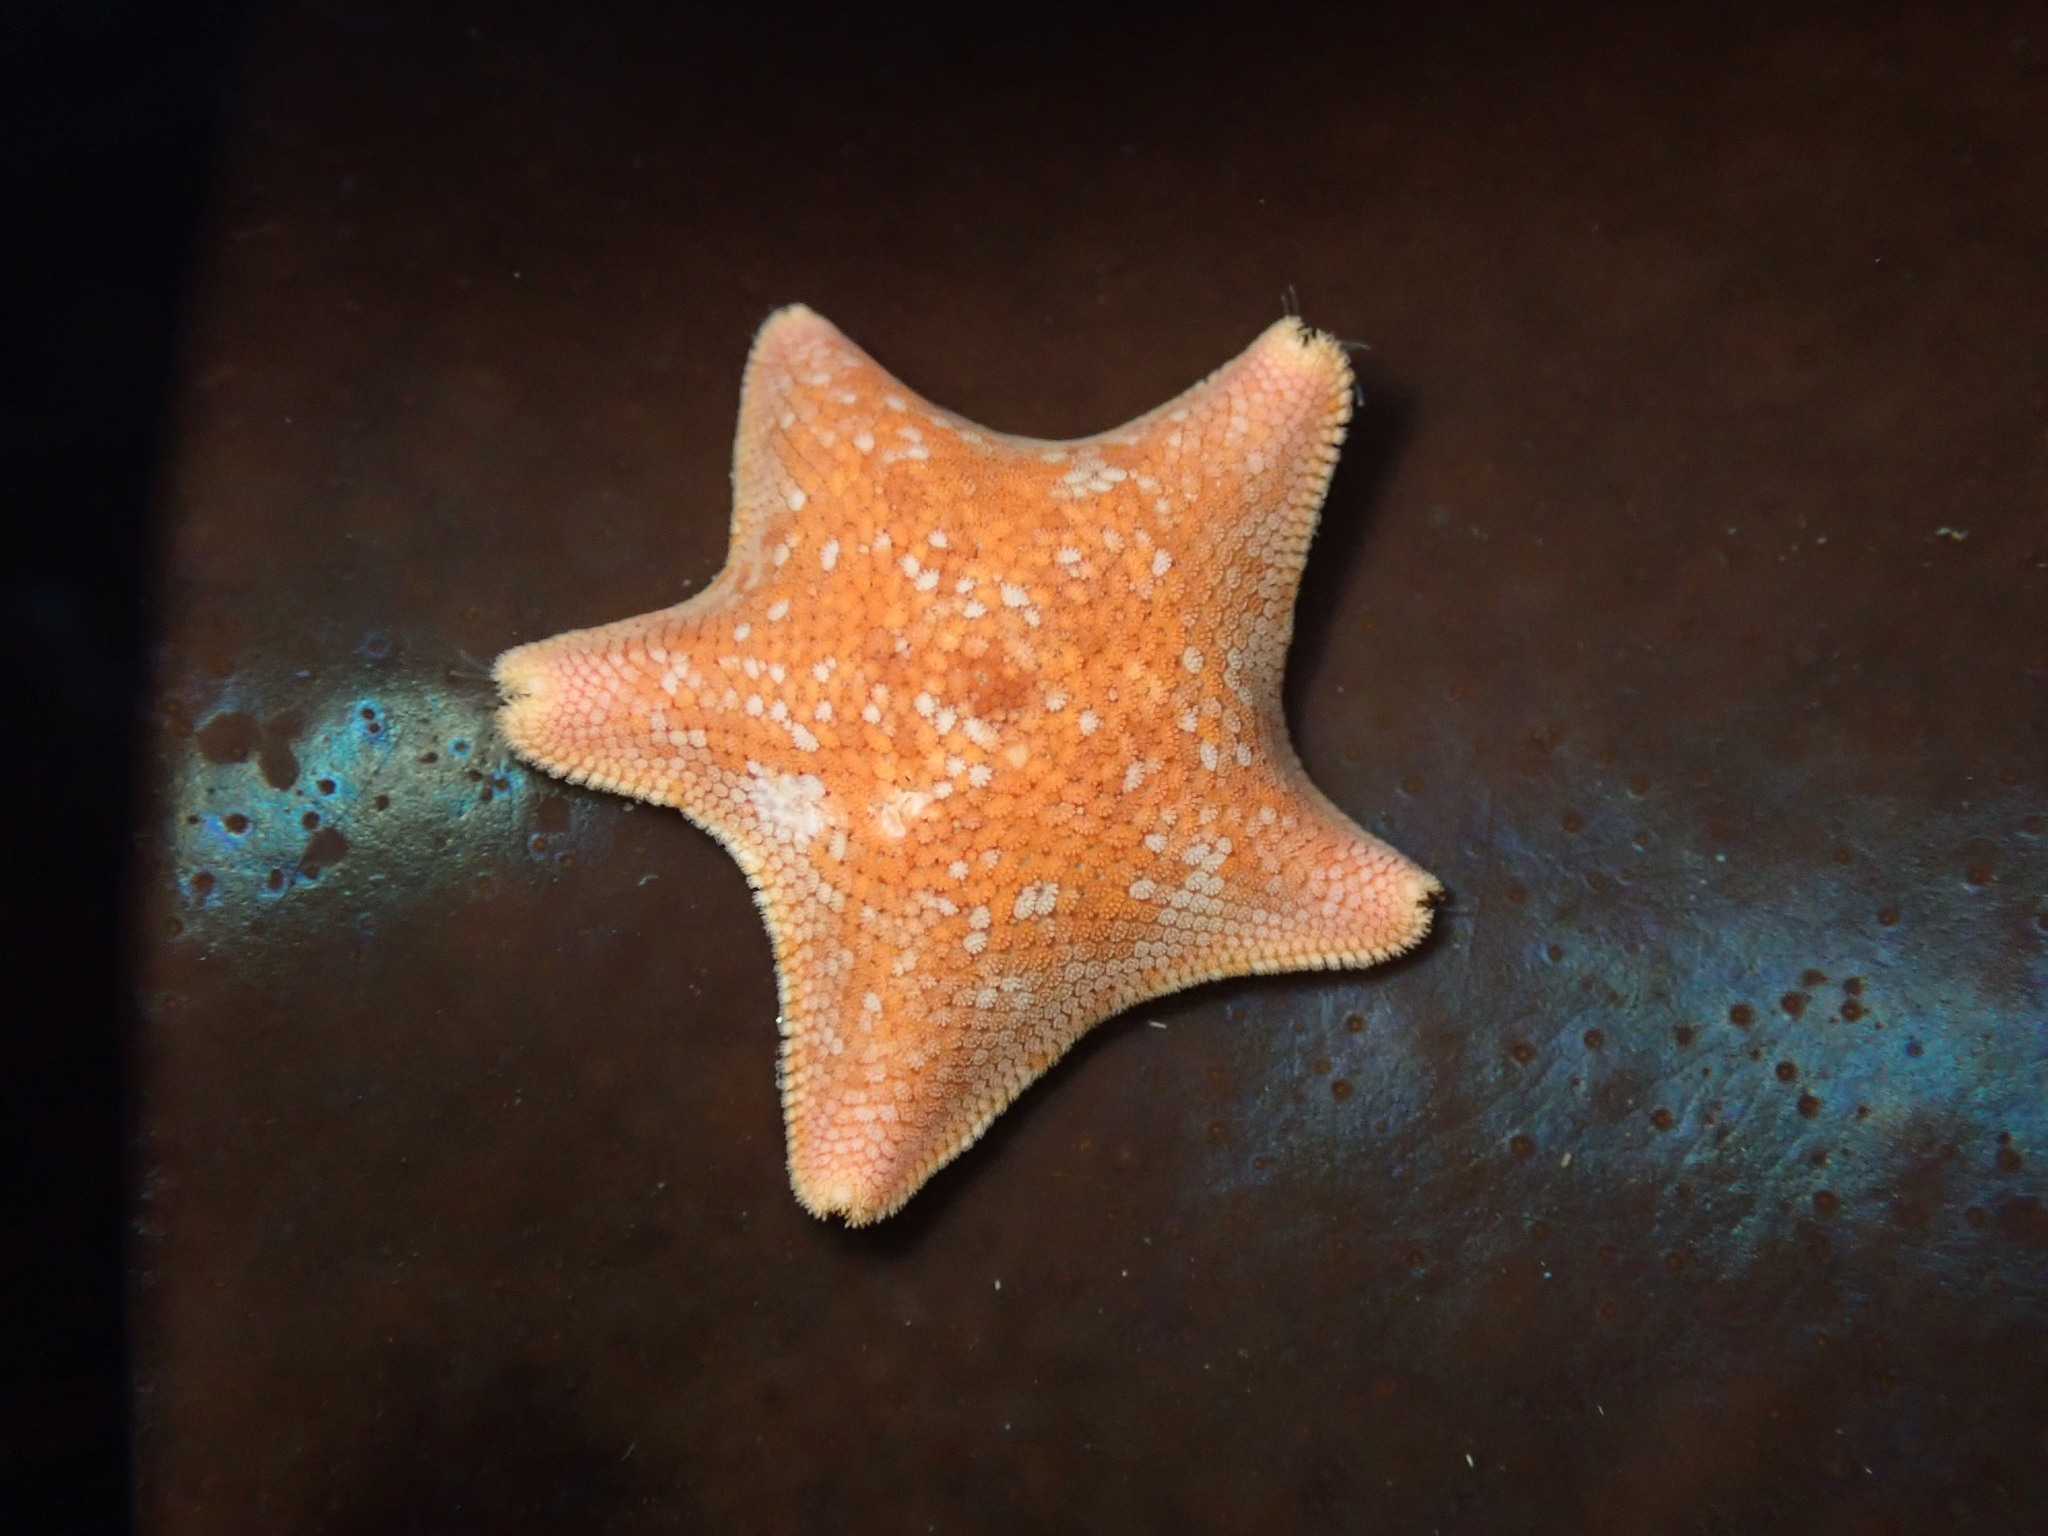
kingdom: Animalia
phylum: Echinodermata
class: Asteroidea
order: Valvatida
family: Asterinidae
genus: Patiria
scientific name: Patiria miniata
